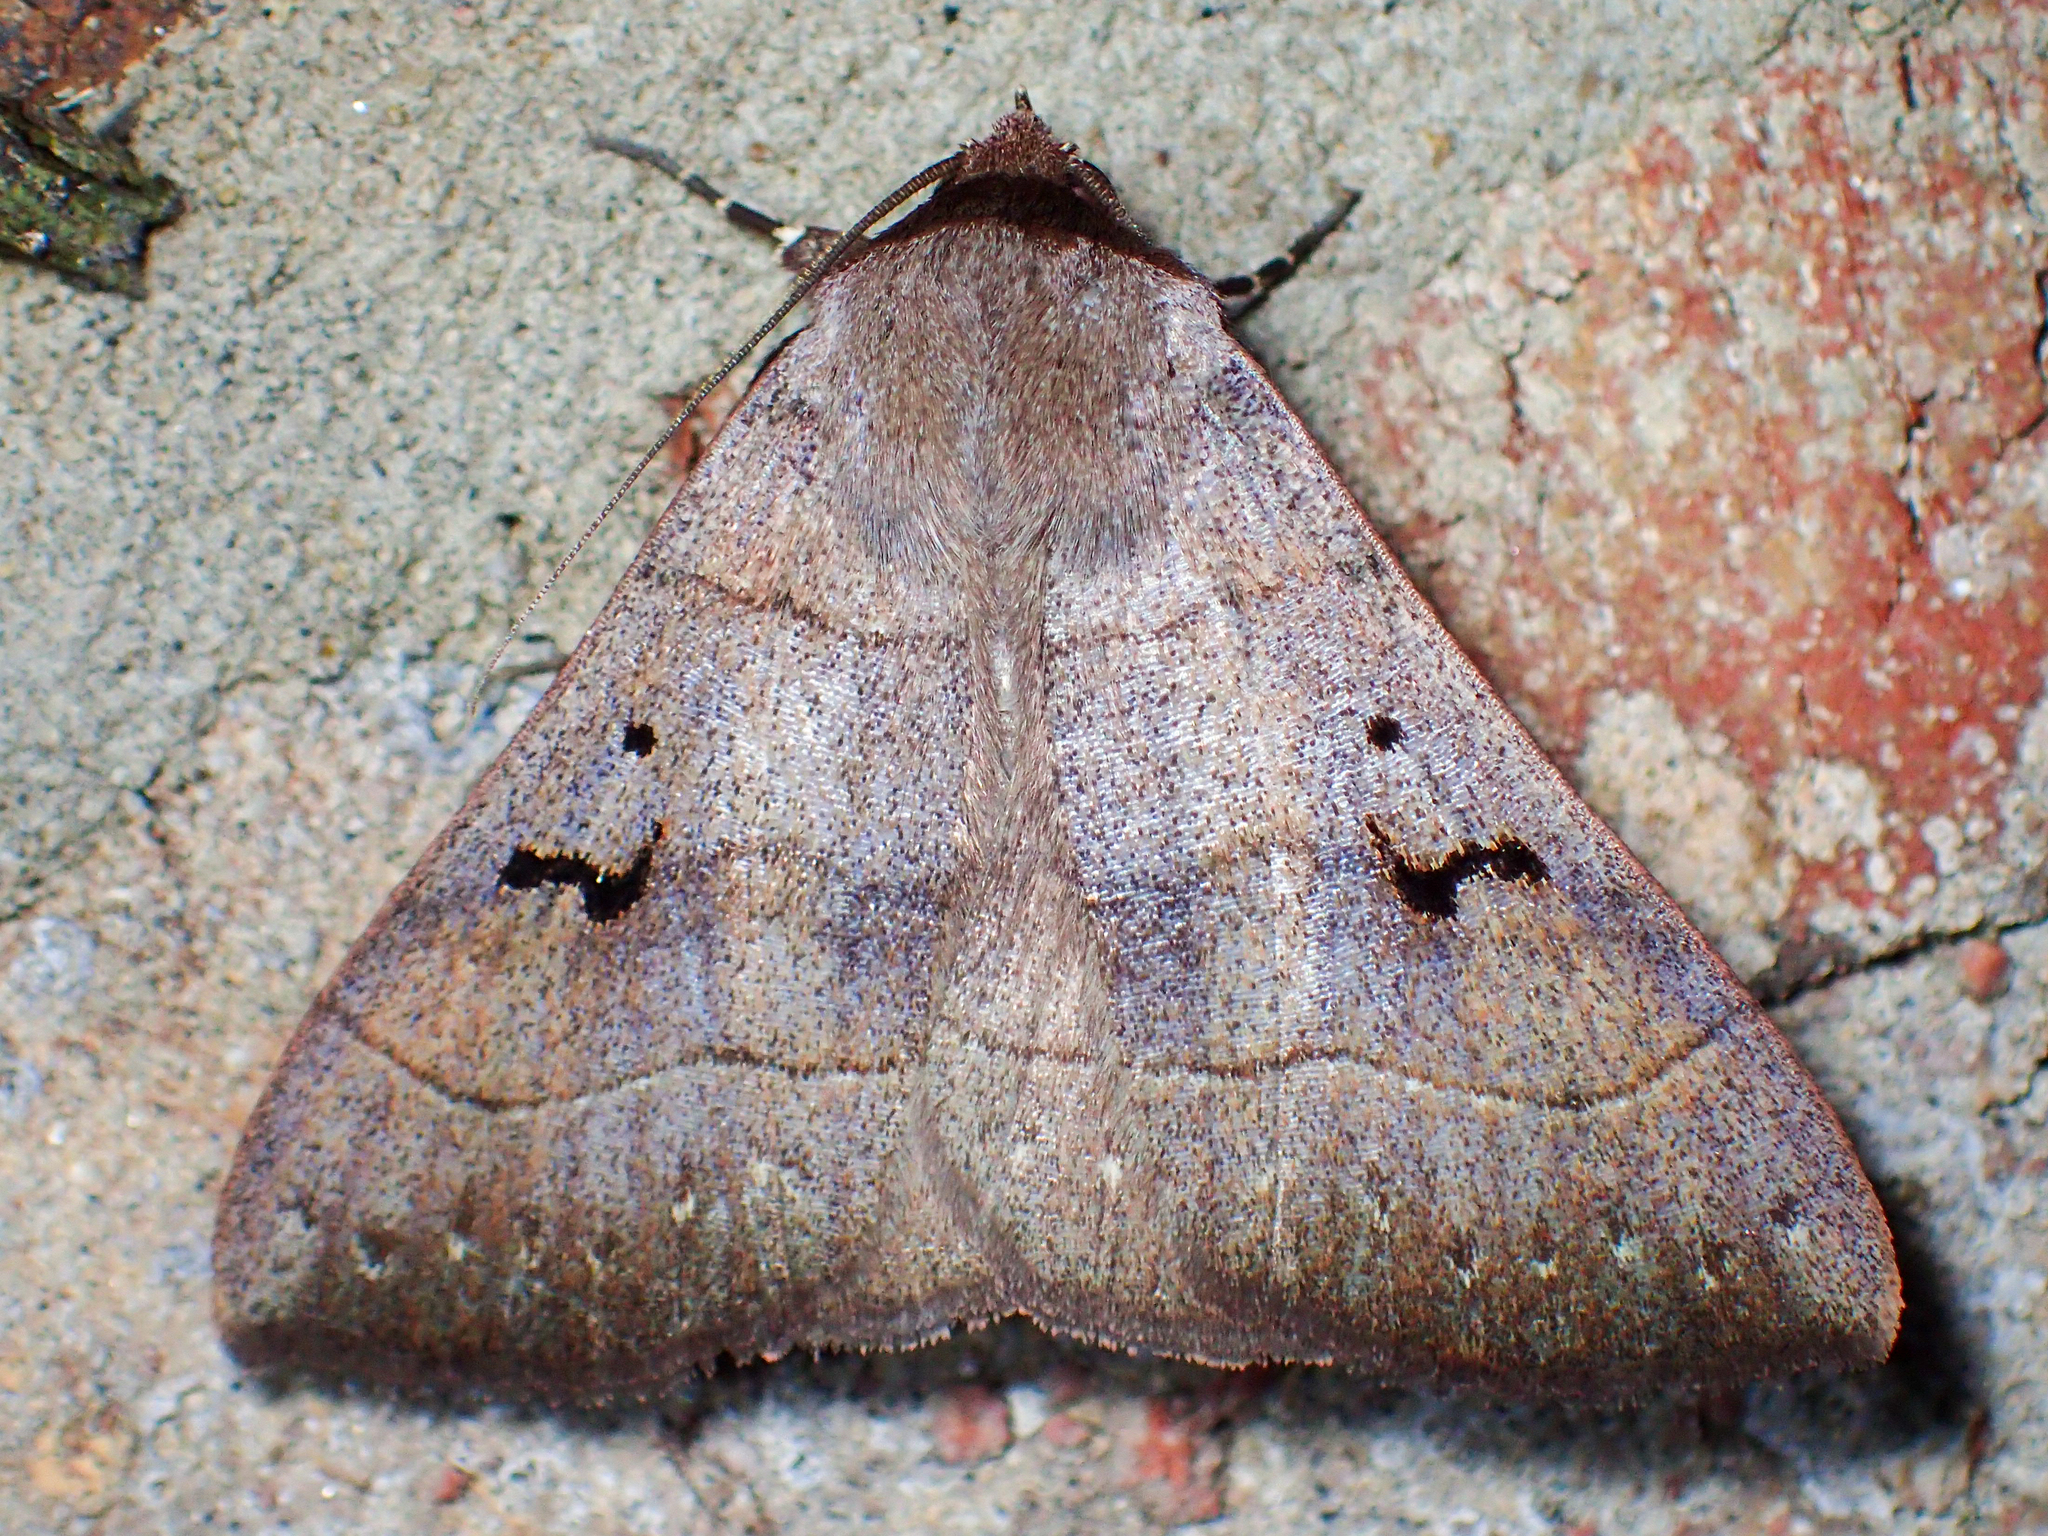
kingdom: Animalia
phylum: Arthropoda
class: Insecta
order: Lepidoptera
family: Erebidae
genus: Panopoda
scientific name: Panopoda carneicosta
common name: Brown panopoda moth
